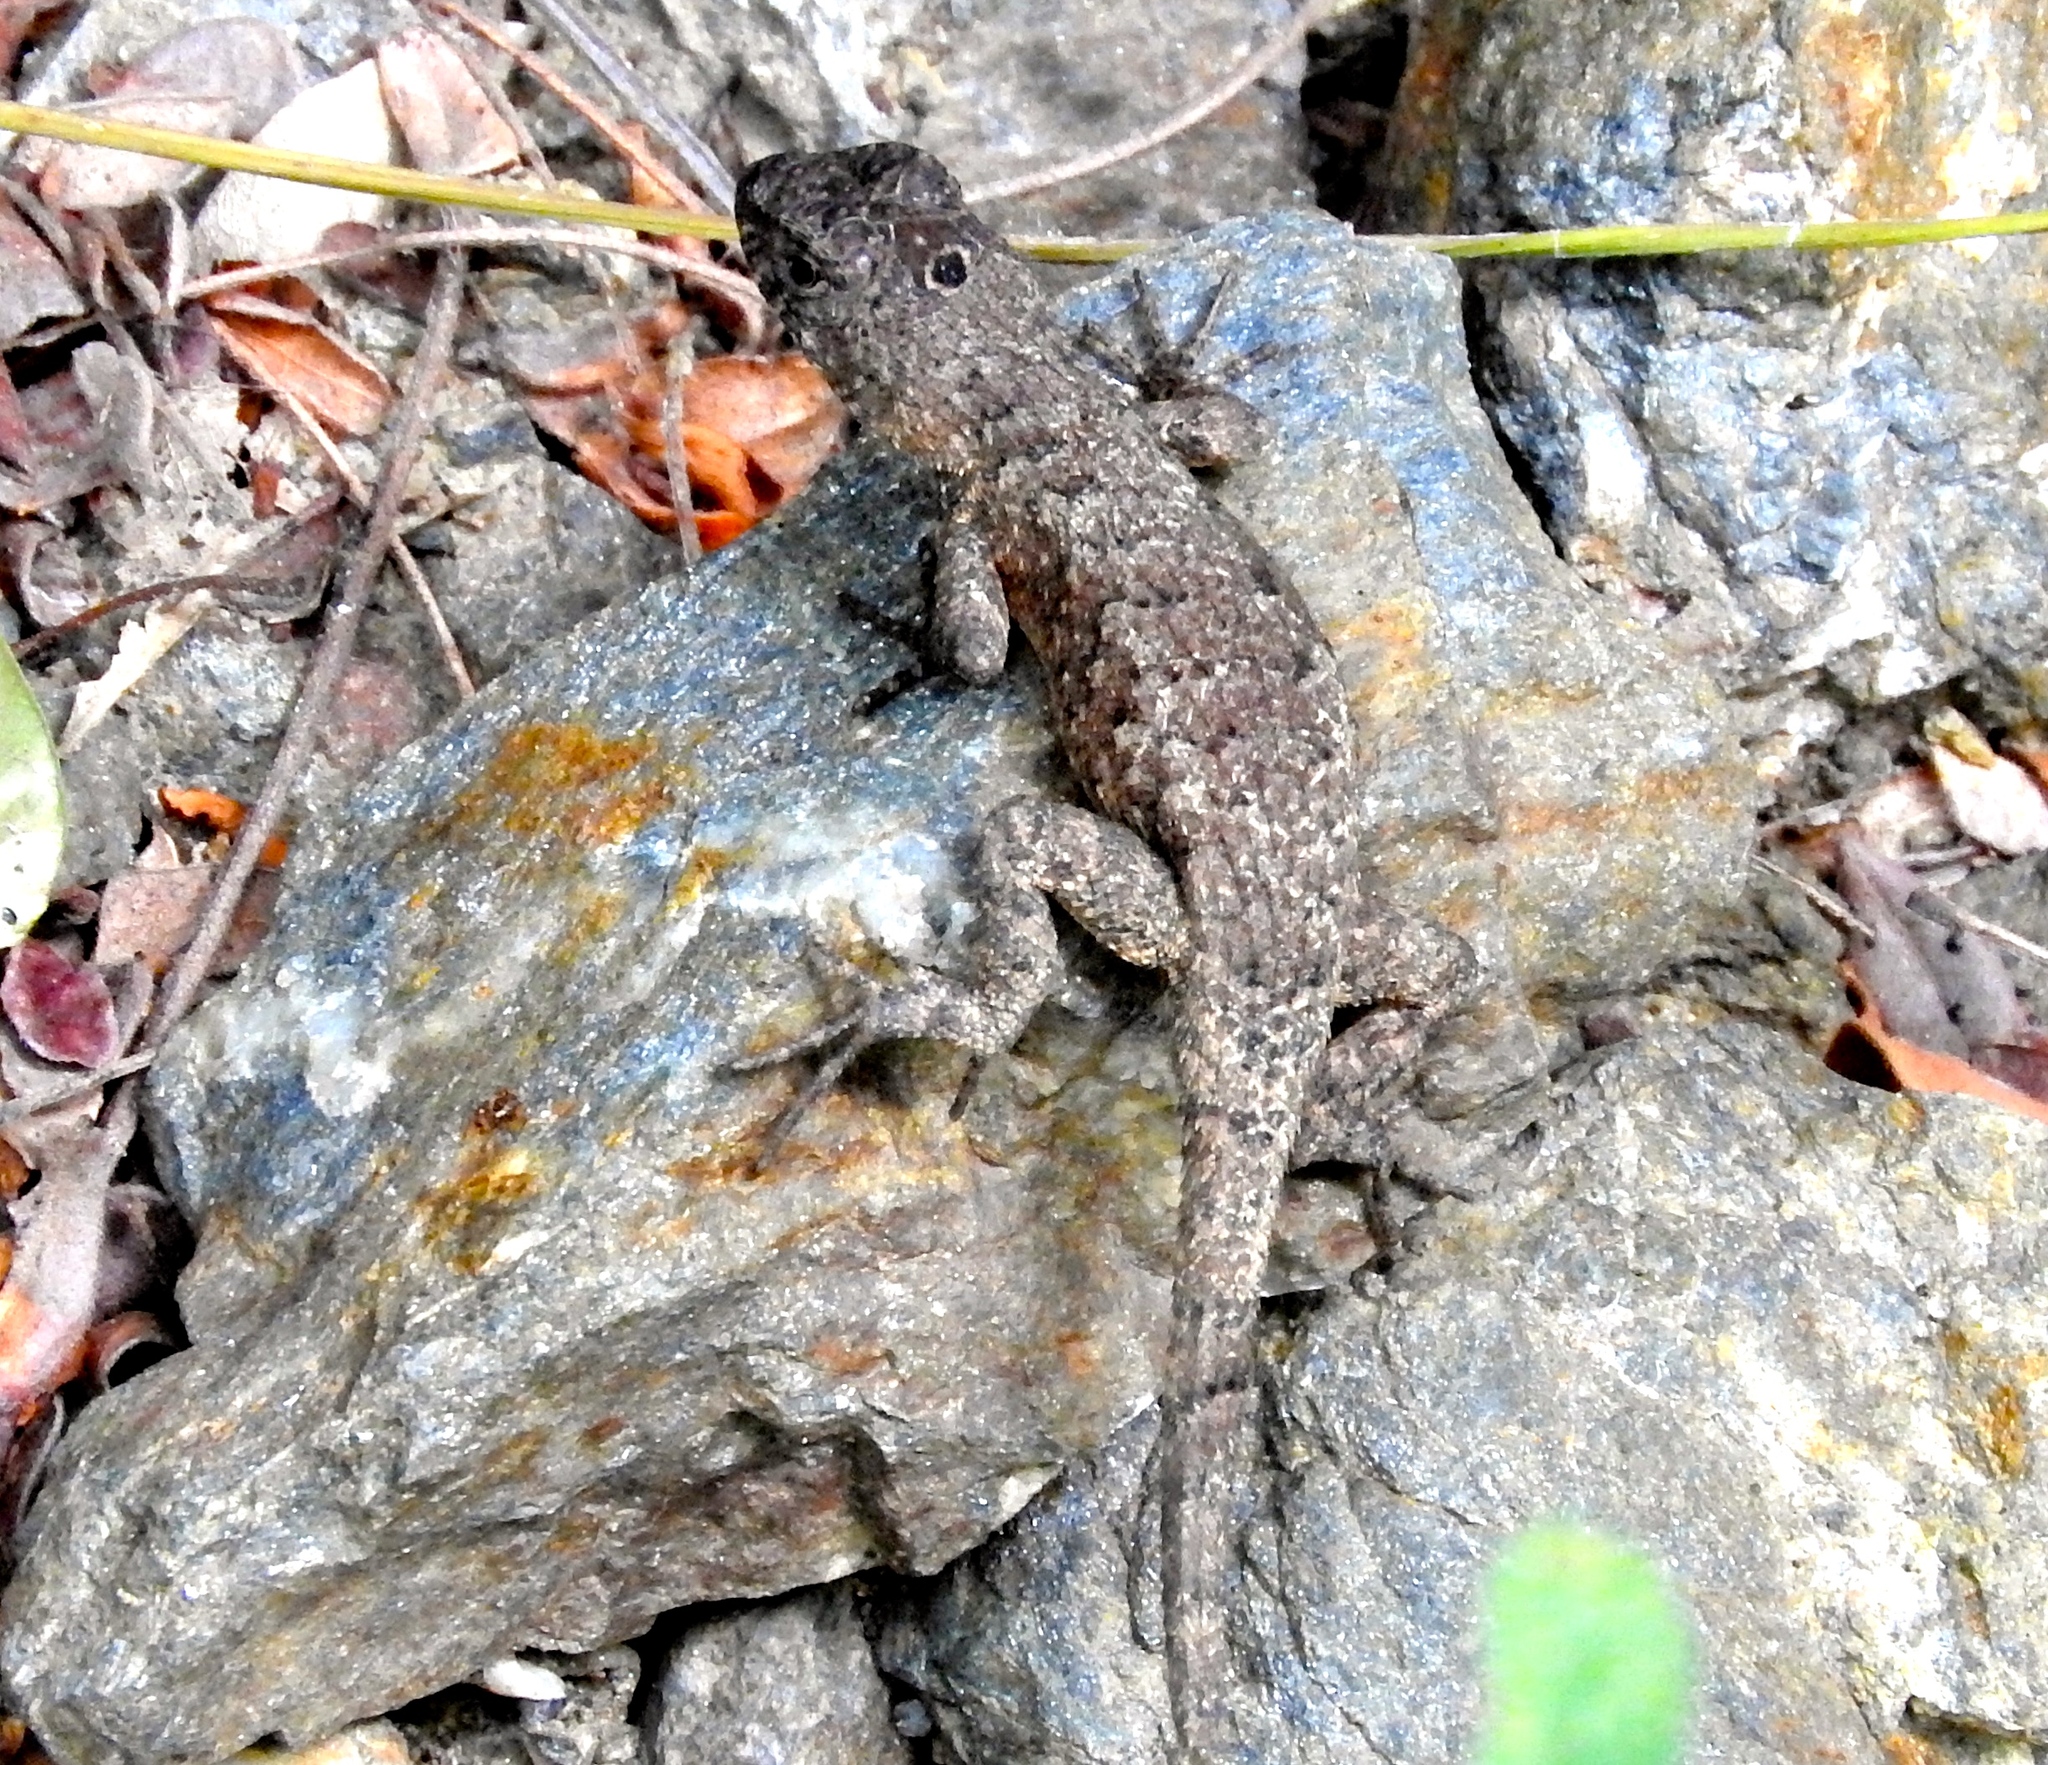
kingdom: Animalia
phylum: Chordata
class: Squamata
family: Phrynosomatidae
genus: Sceloporus
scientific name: Sceloporus nelsoni
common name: Nelson's spiny lizard
